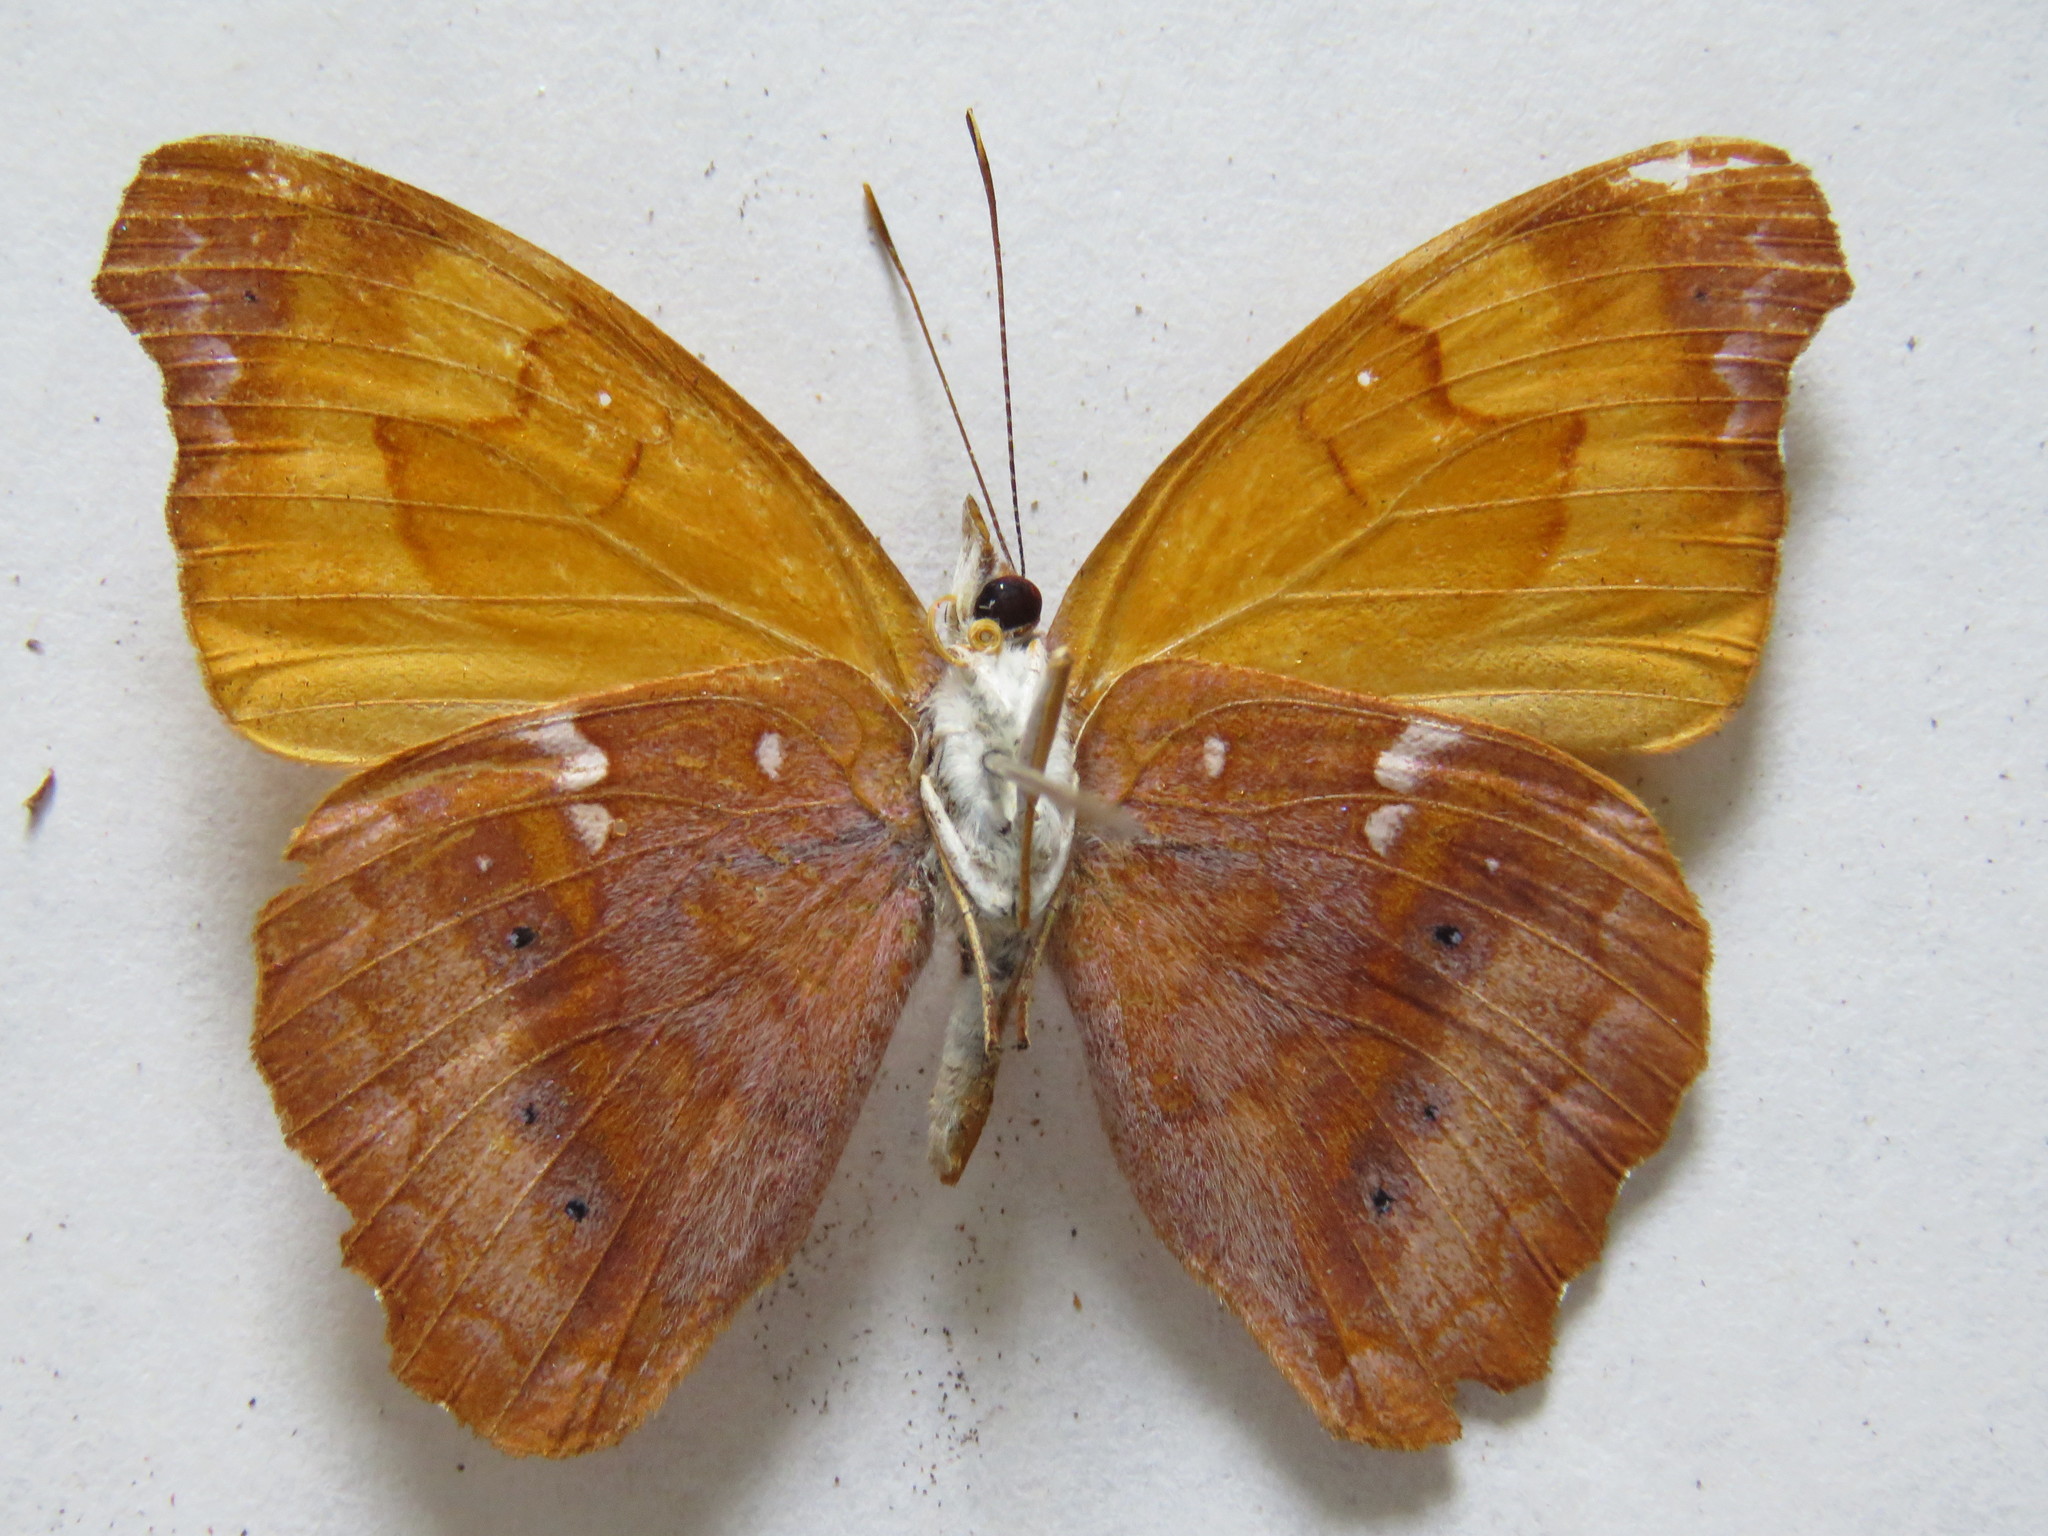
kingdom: Animalia
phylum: Arthropoda
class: Insecta
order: Lepidoptera
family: Nymphalidae
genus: Temenis
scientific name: Temenis laothoe
